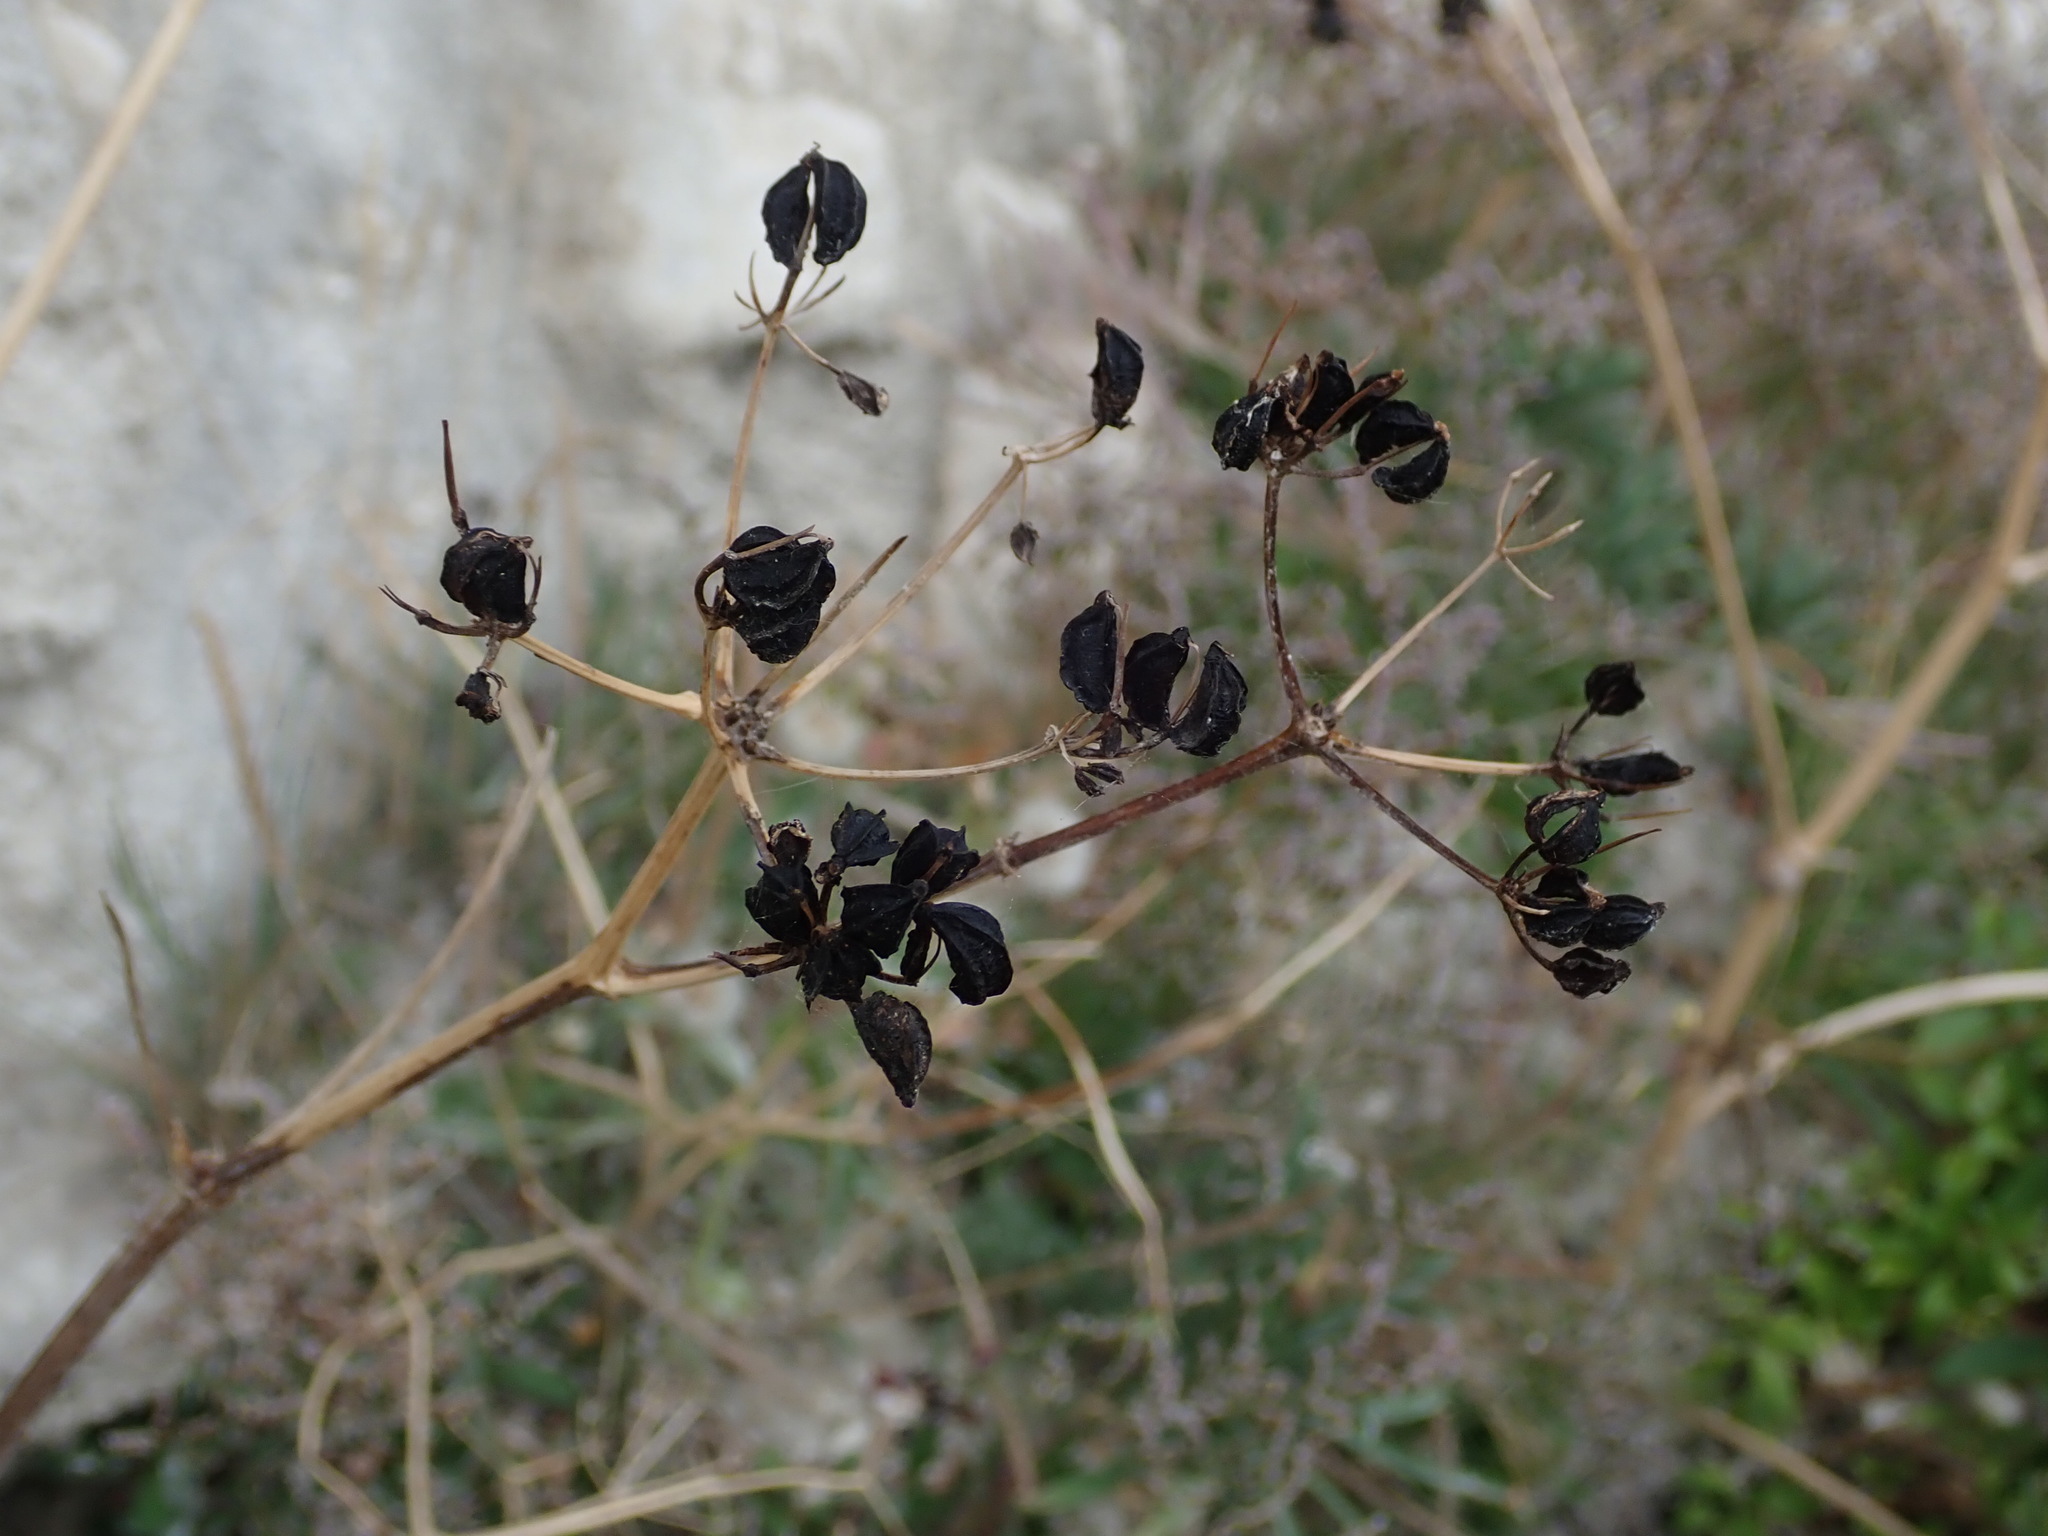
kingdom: Plantae
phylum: Tracheophyta
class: Magnoliopsida
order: Apiales
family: Apiaceae
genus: Smyrnium
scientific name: Smyrnium olusatrum
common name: Alexanders
